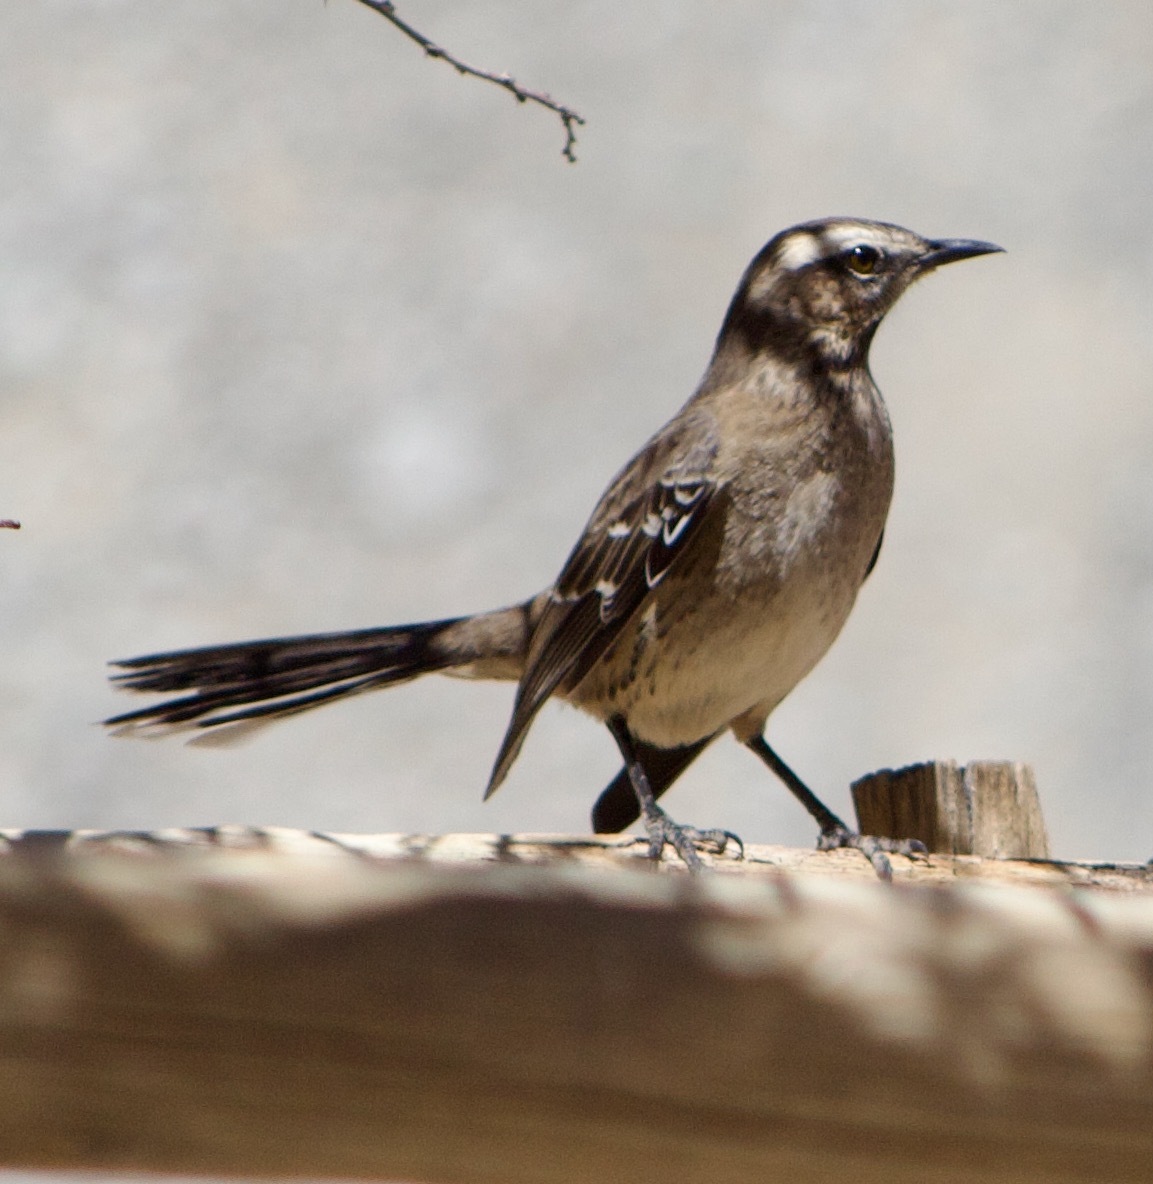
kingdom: Animalia
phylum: Chordata
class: Aves
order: Passeriformes
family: Mimidae
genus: Mimus
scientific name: Mimus thenca
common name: Chilean mockingbird
